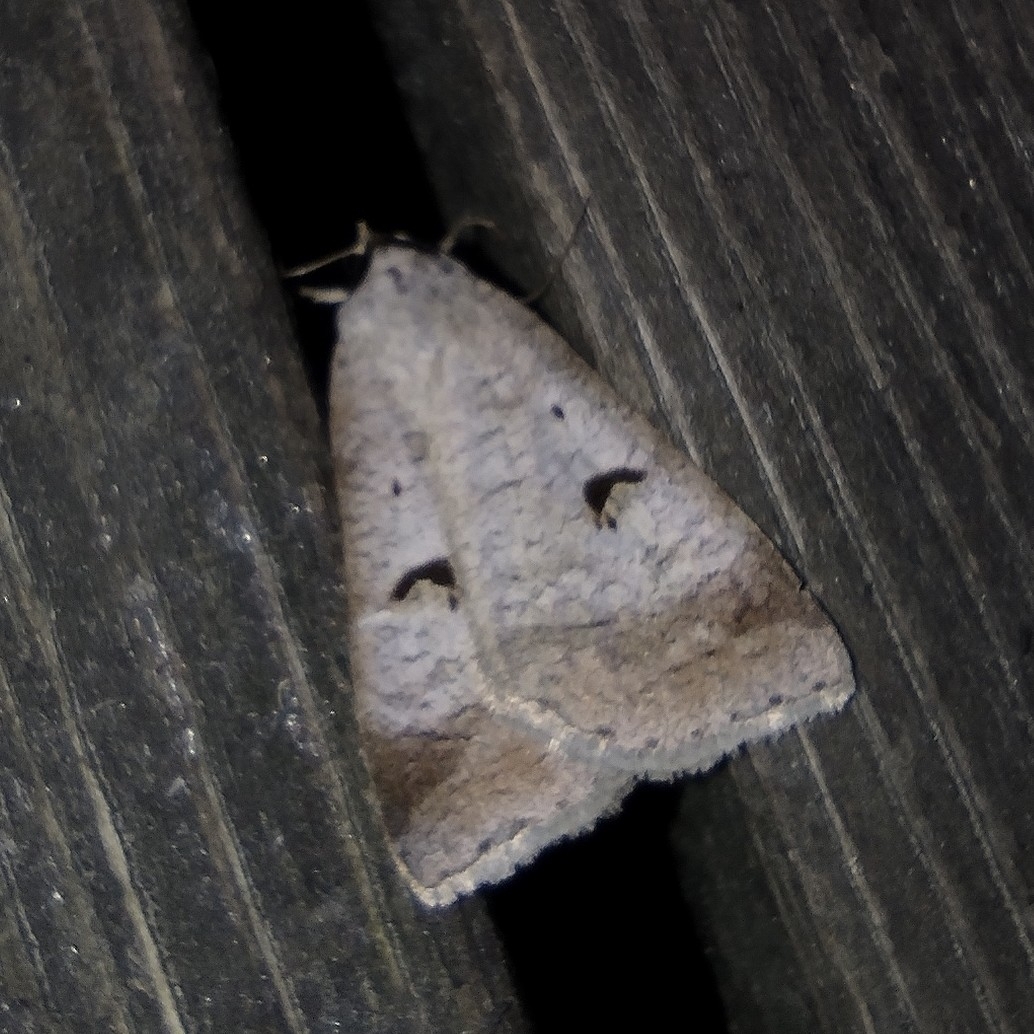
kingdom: Animalia
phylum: Arthropoda
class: Insecta
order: Lepidoptera
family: Erebidae
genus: Lygephila
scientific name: Lygephila pastinum
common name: Blackneck
